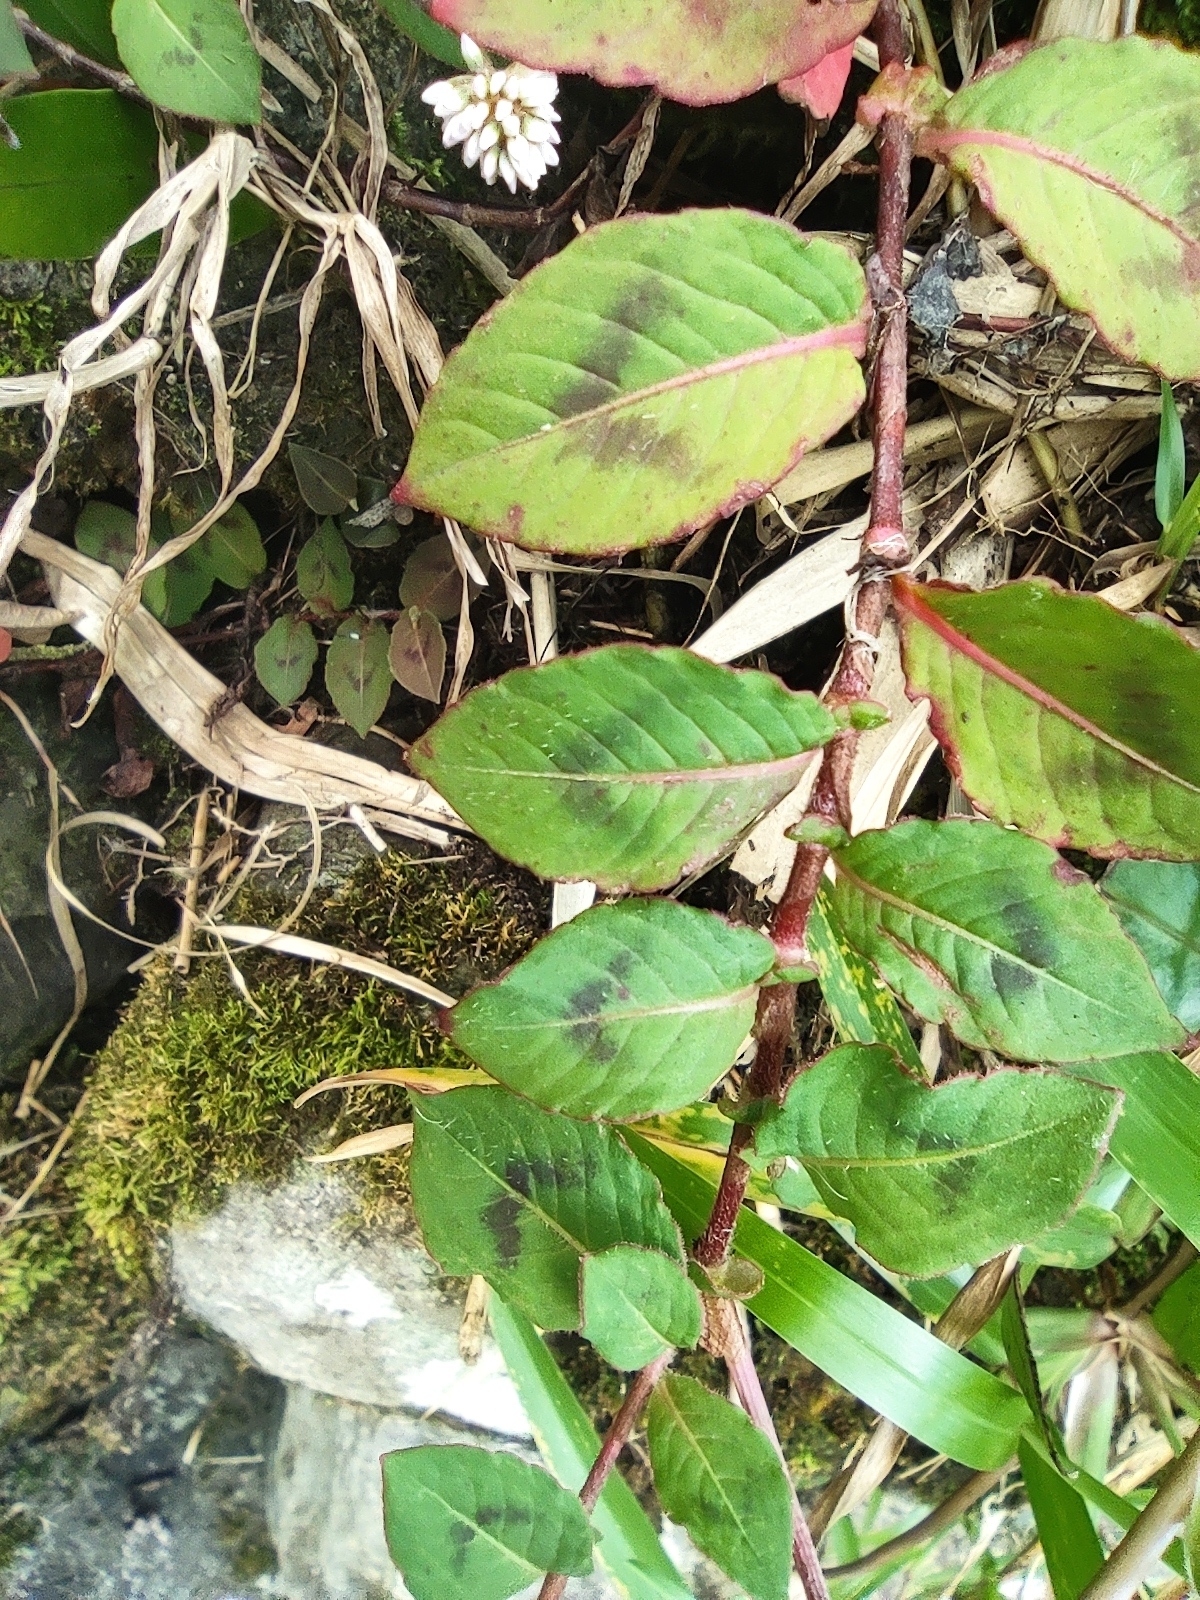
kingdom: Plantae
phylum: Tracheophyta
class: Magnoliopsida
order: Caryophyllales
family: Polygonaceae
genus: Persicaria
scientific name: Persicaria capitata
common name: Pinkhead smartweed
